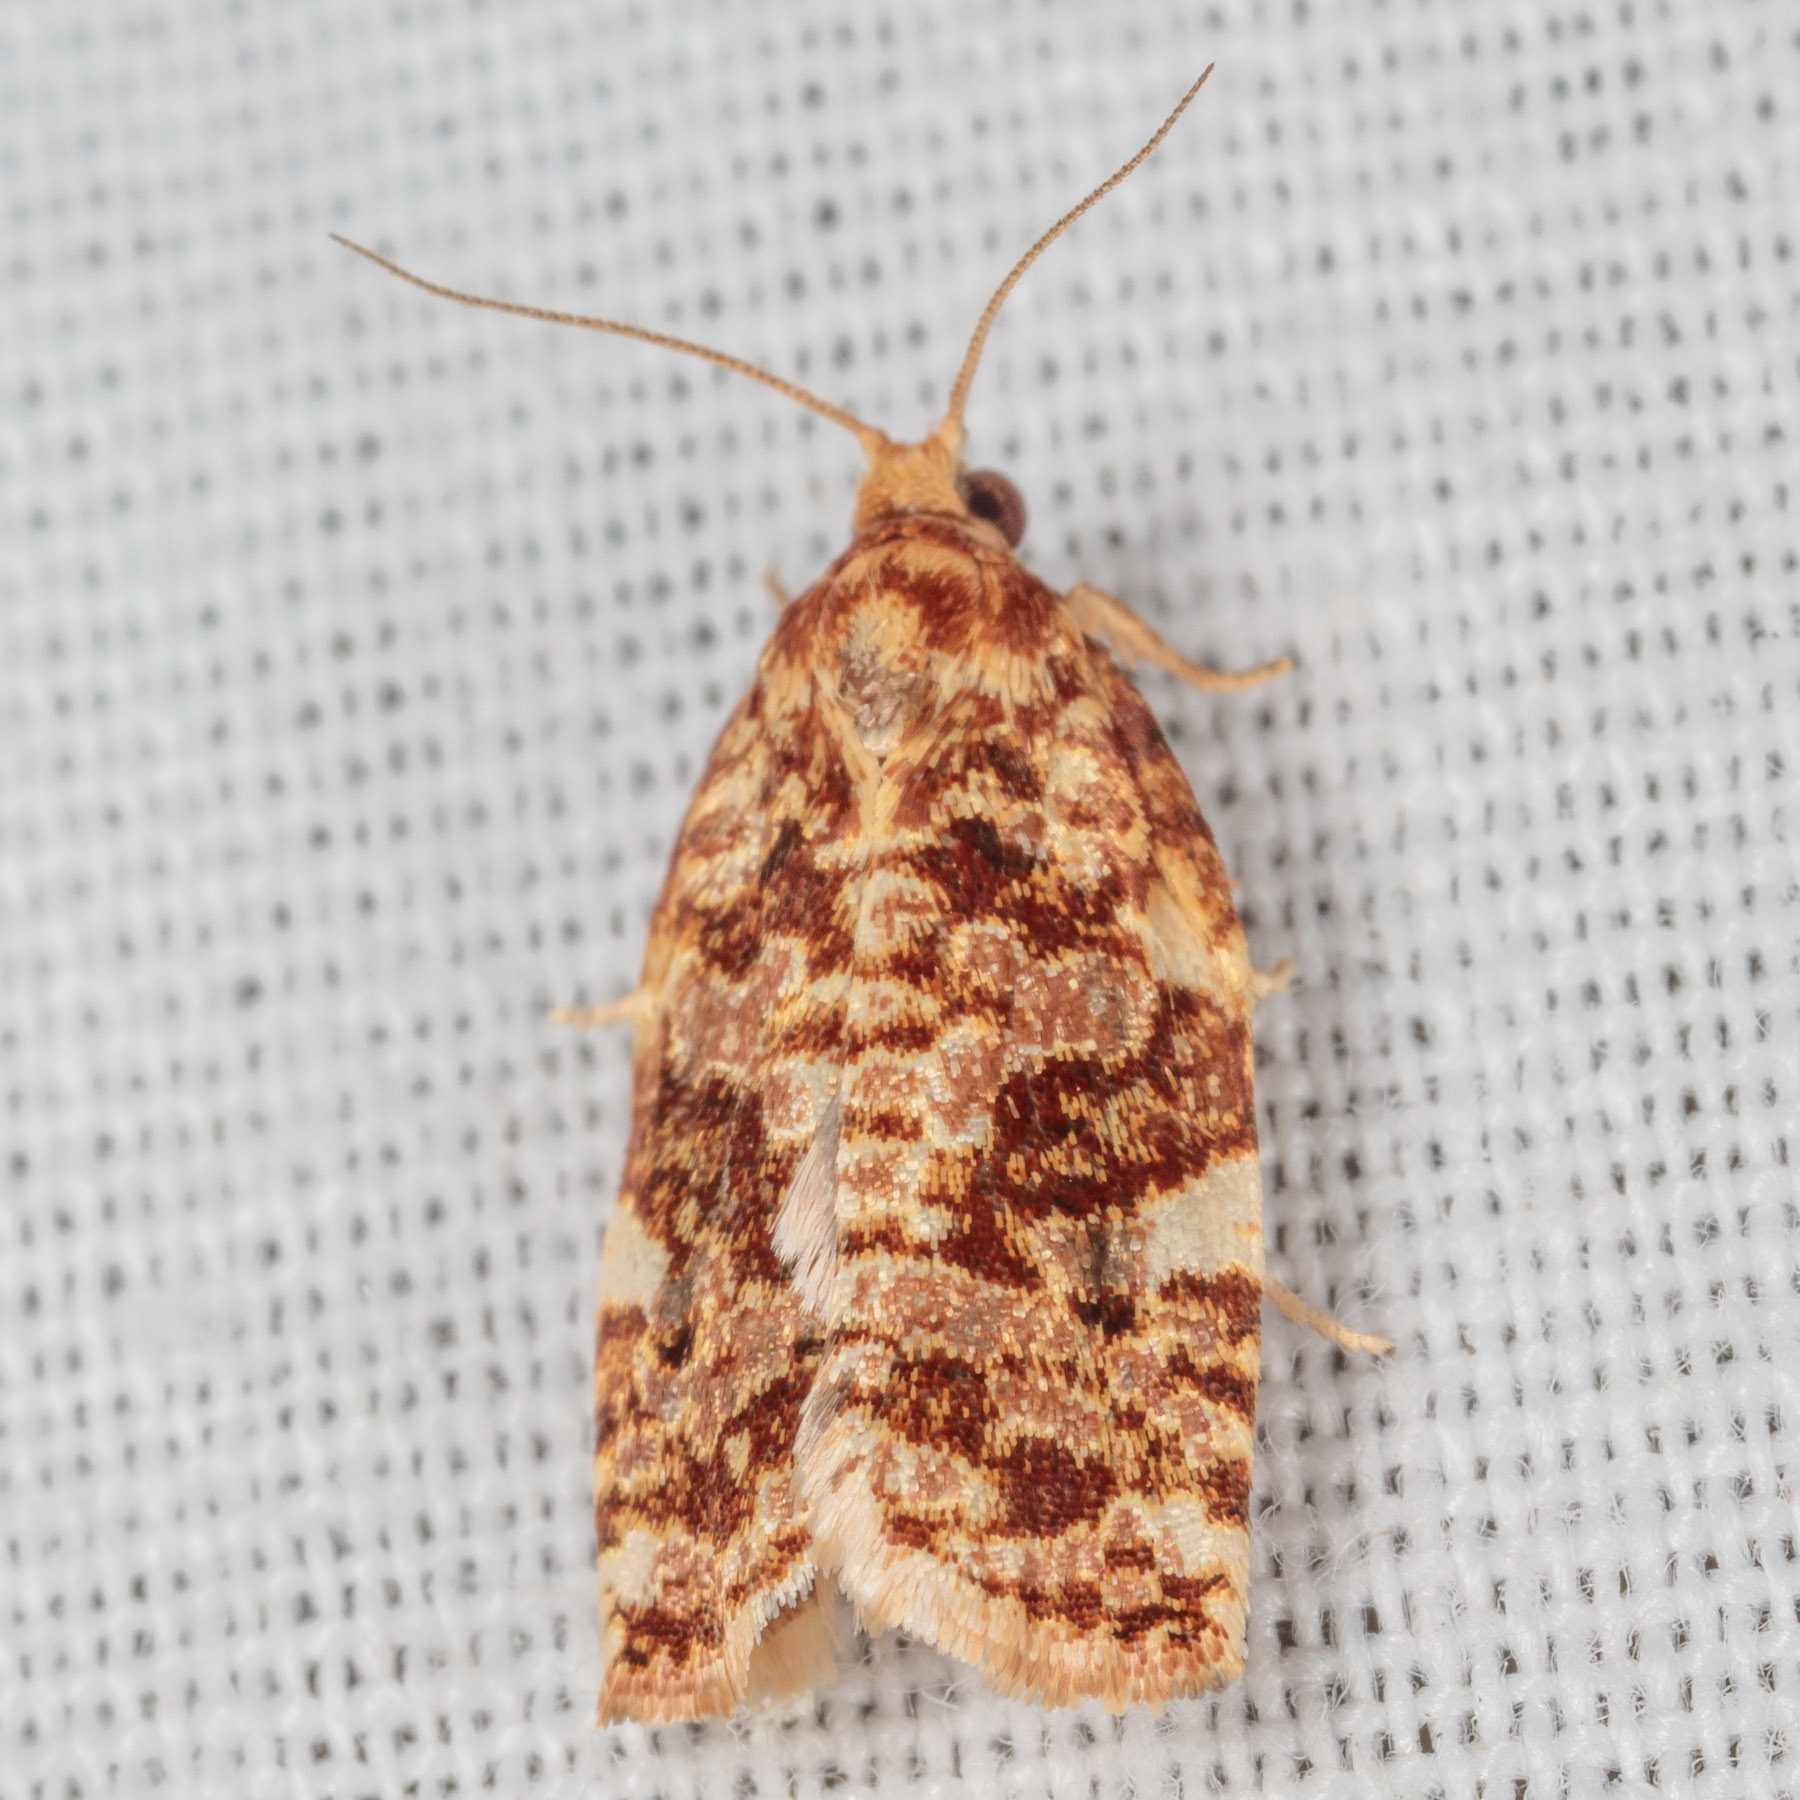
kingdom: Animalia
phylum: Arthropoda
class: Insecta
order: Lepidoptera
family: Tortricidae
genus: Archips
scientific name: Archips argyrospila
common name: Fruit-tree leafroller moth
